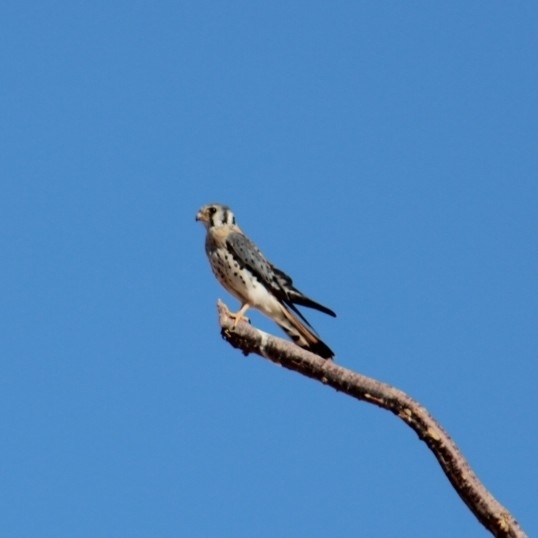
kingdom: Animalia
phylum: Chordata
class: Aves
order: Falconiformes
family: Falconidae
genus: Falco
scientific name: Falco sparverius
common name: American kestrel
